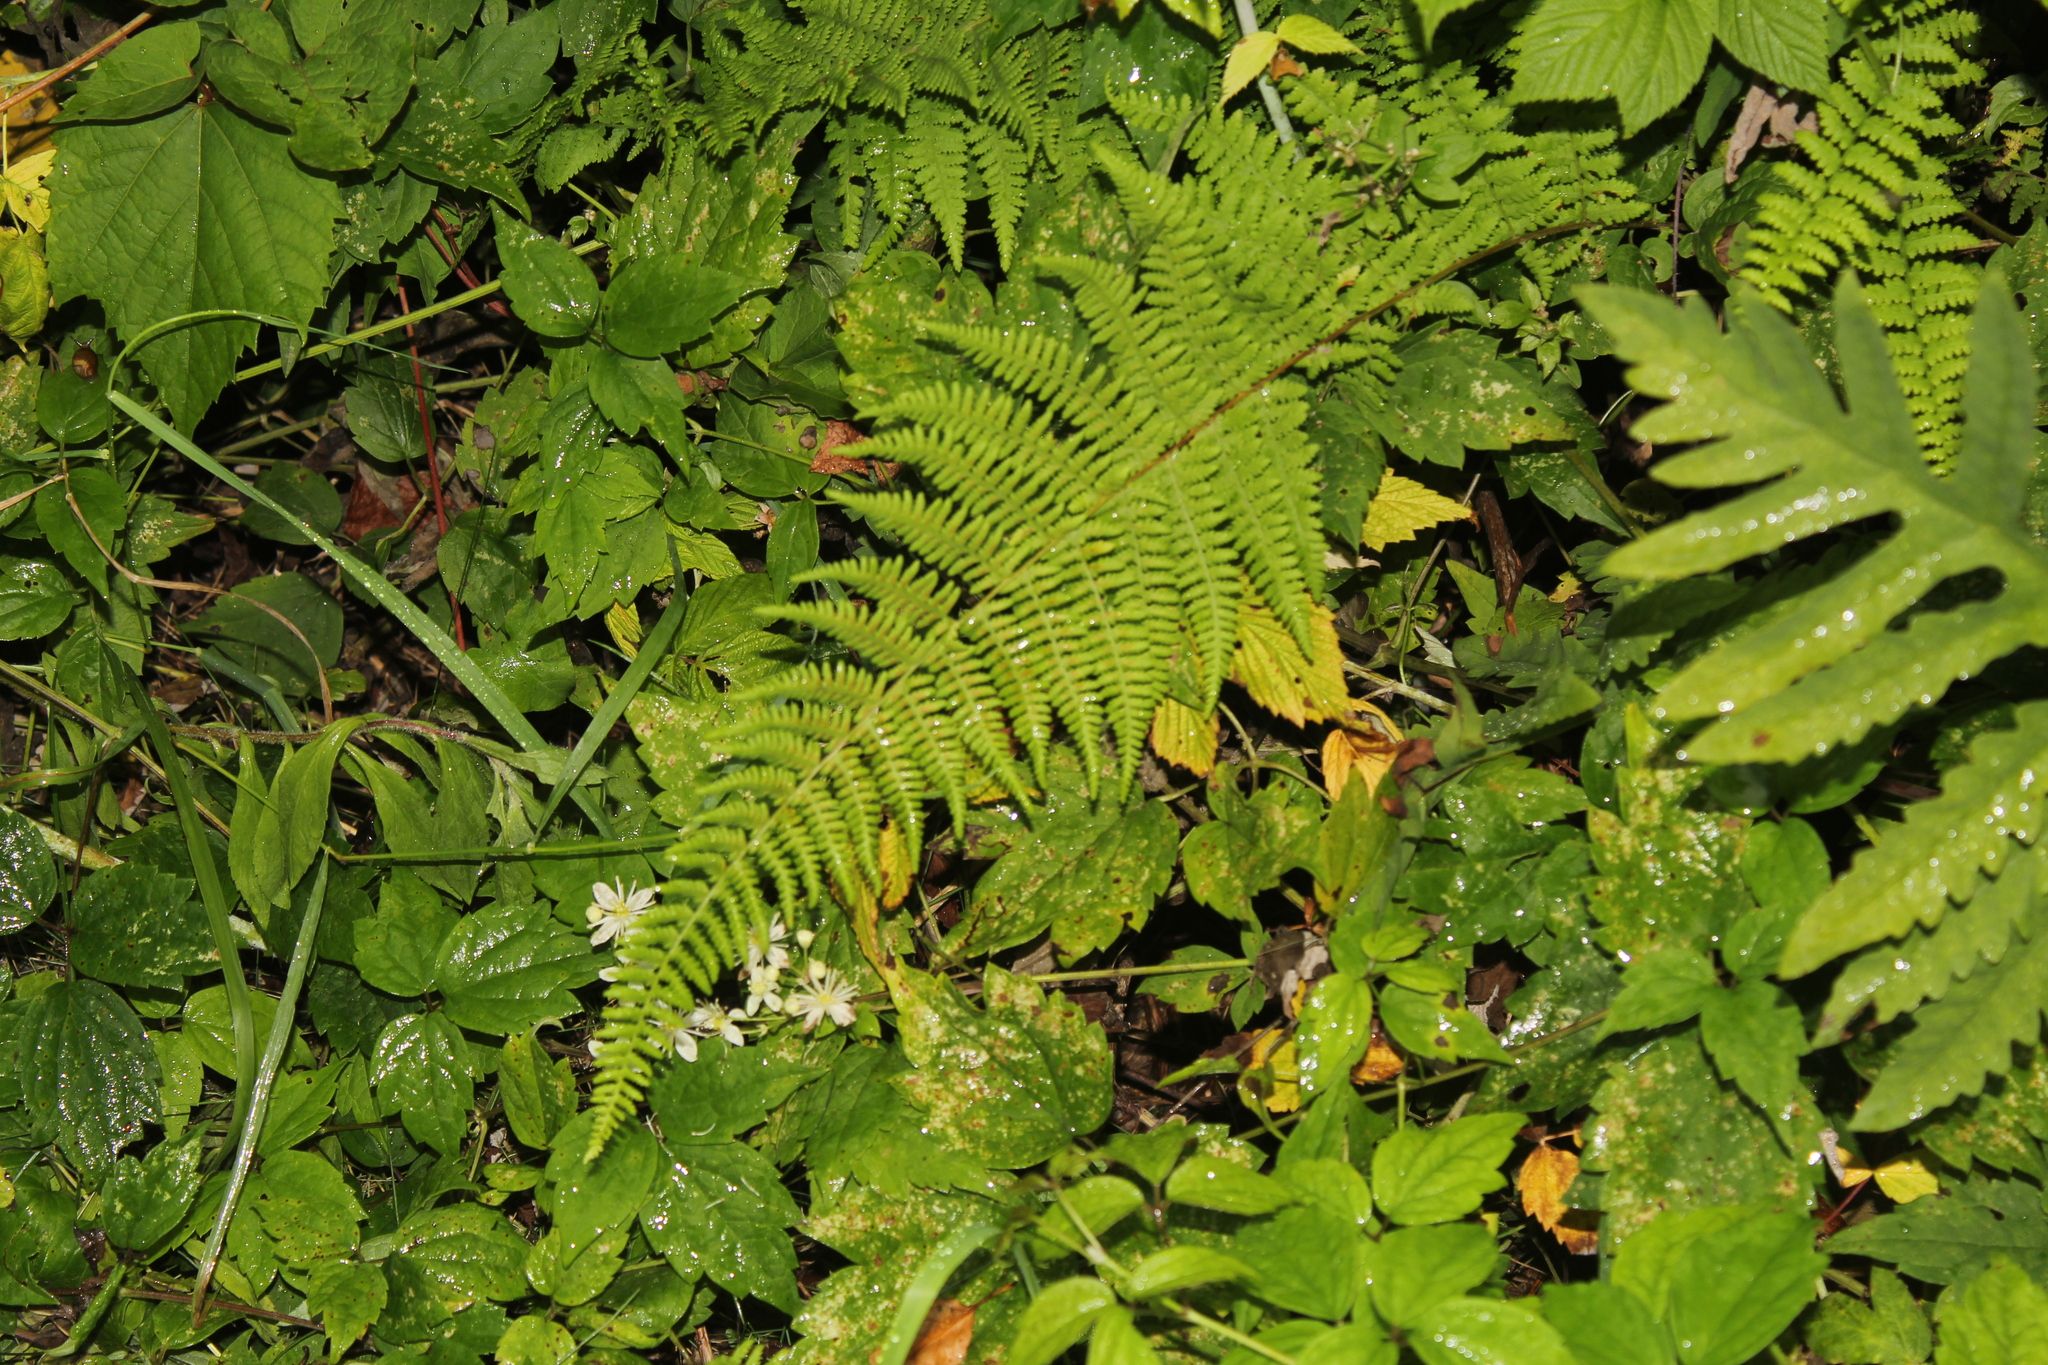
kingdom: Plantae
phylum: Tracheophyta
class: Polypodiopsida
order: Polypodiales
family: Dennstaedtiaceae
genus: Sitobolium
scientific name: Sitobolium punctilobum
